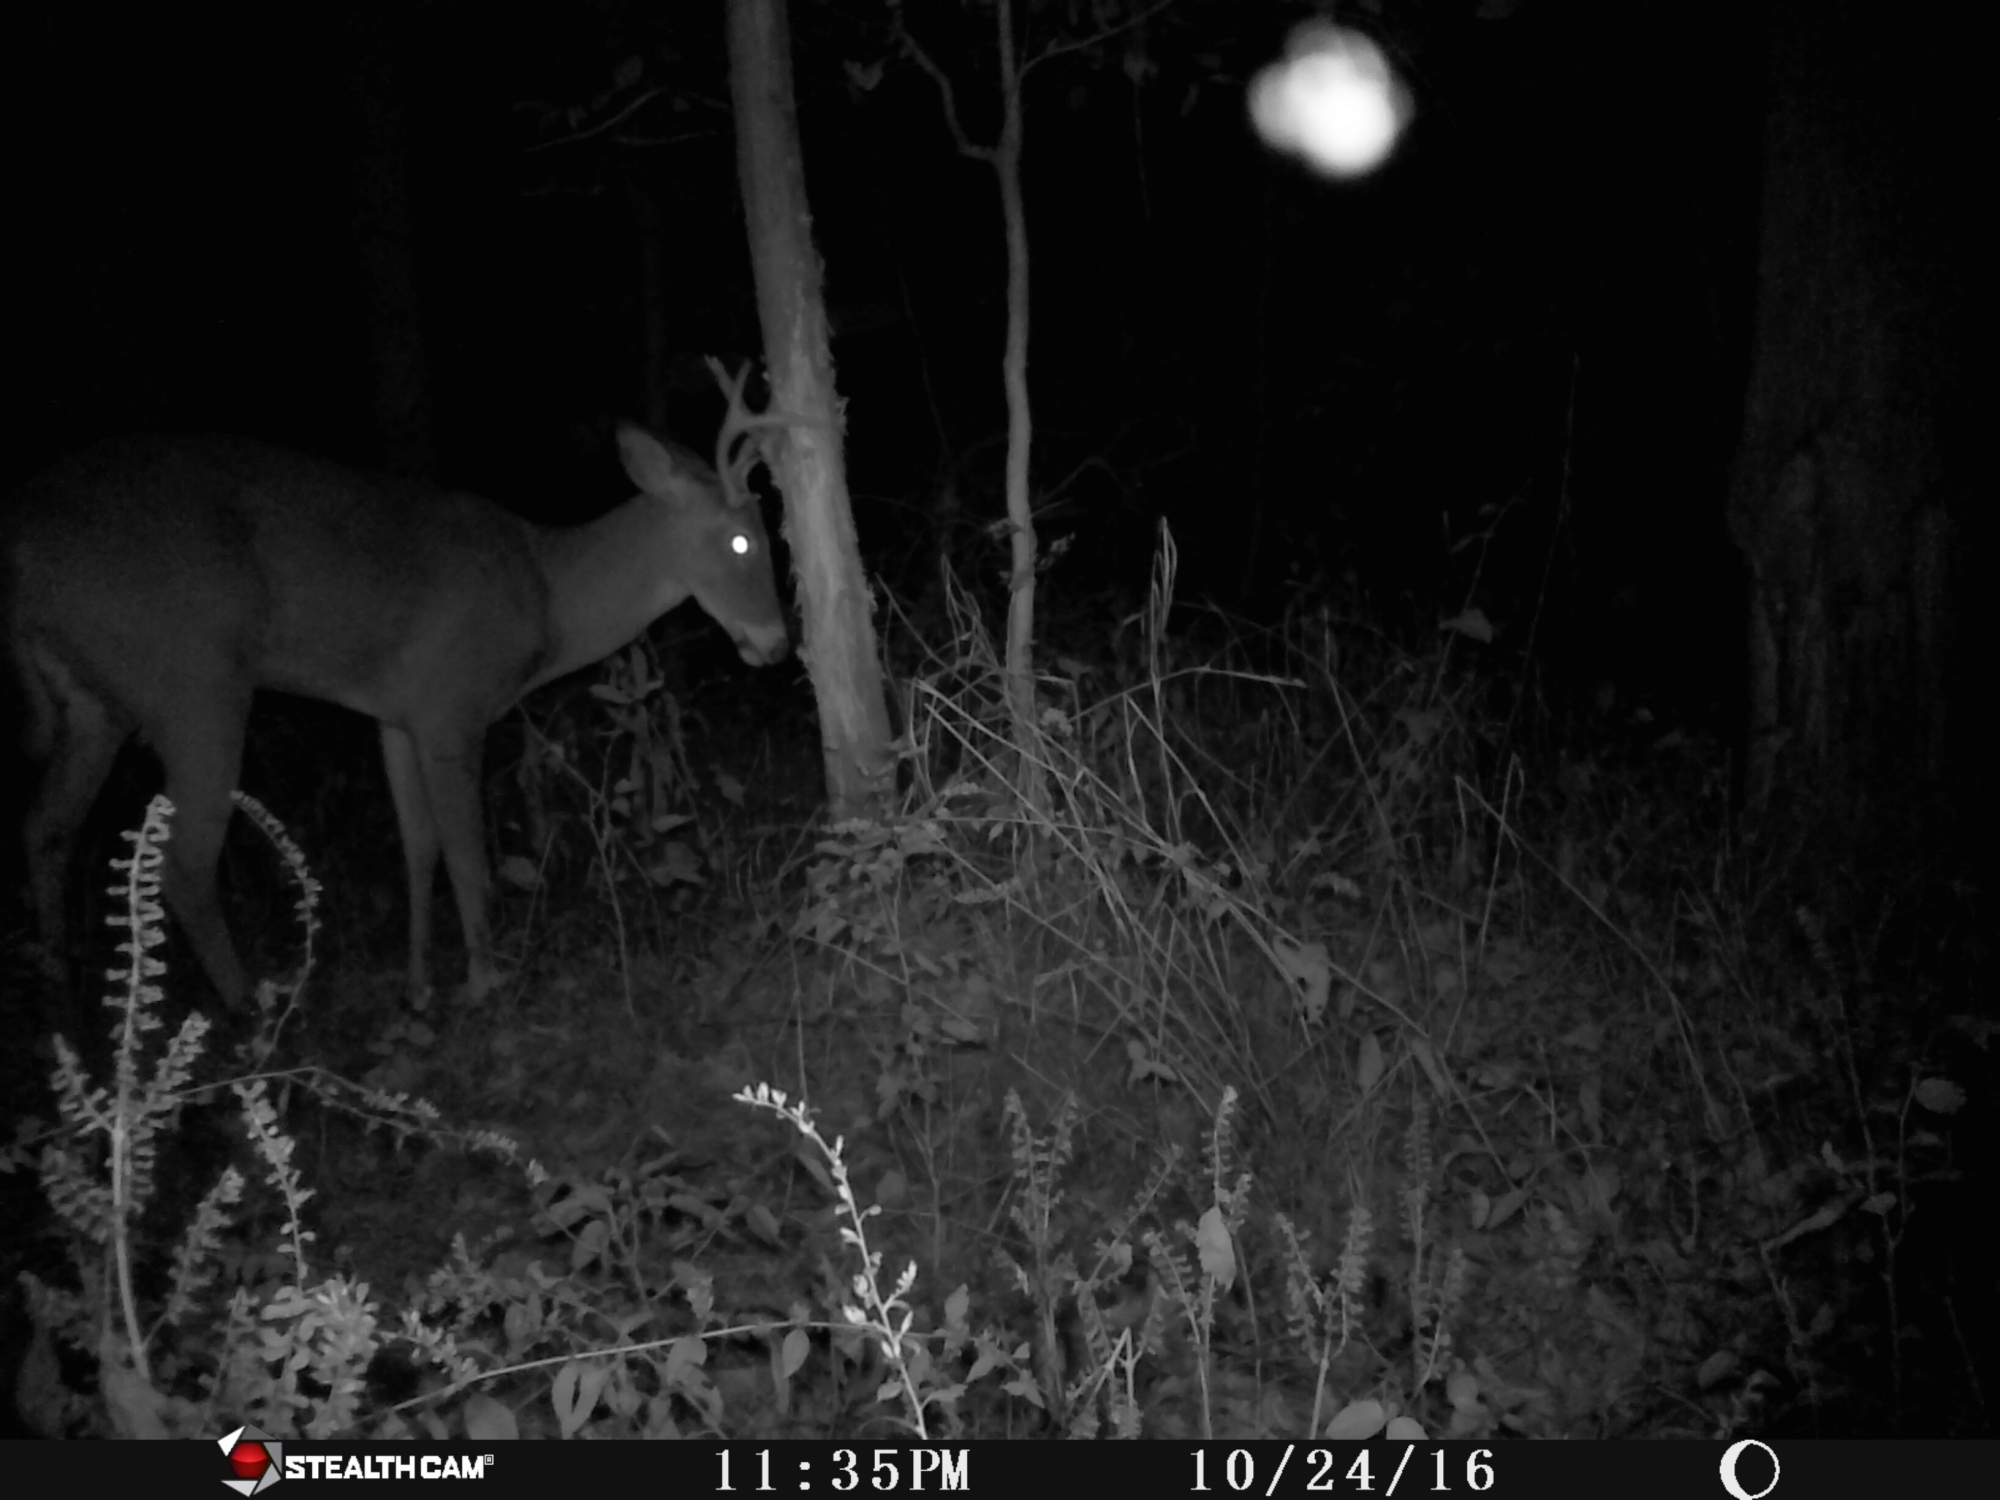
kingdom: Animalia
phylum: Chordata
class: Mammalia
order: Artiodactyla
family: Cervidae
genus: Odocoileus
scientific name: Odocoileus virginianus
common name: White-tailed deer
